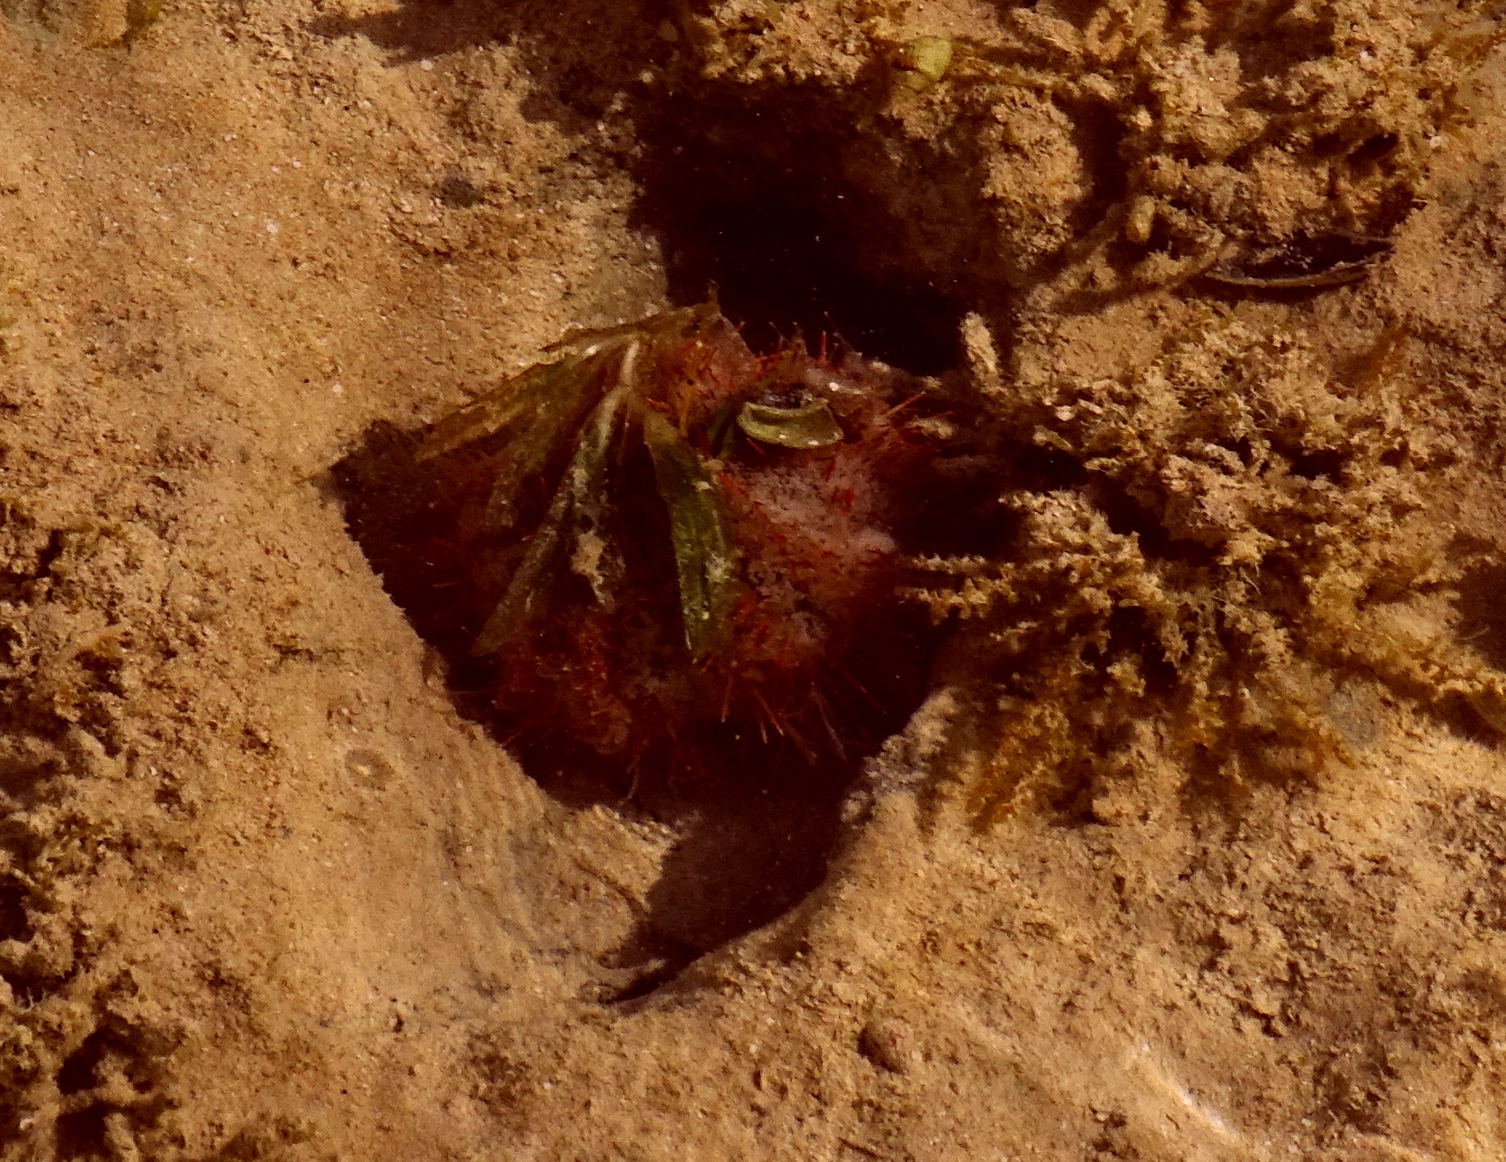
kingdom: Animalia
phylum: Echinodermata
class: Echinoidea
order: Camarodonta
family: Toxopneustidae
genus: Tripneustes
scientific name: Tripneustes gratilla
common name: Bischofsmützenseeigel
